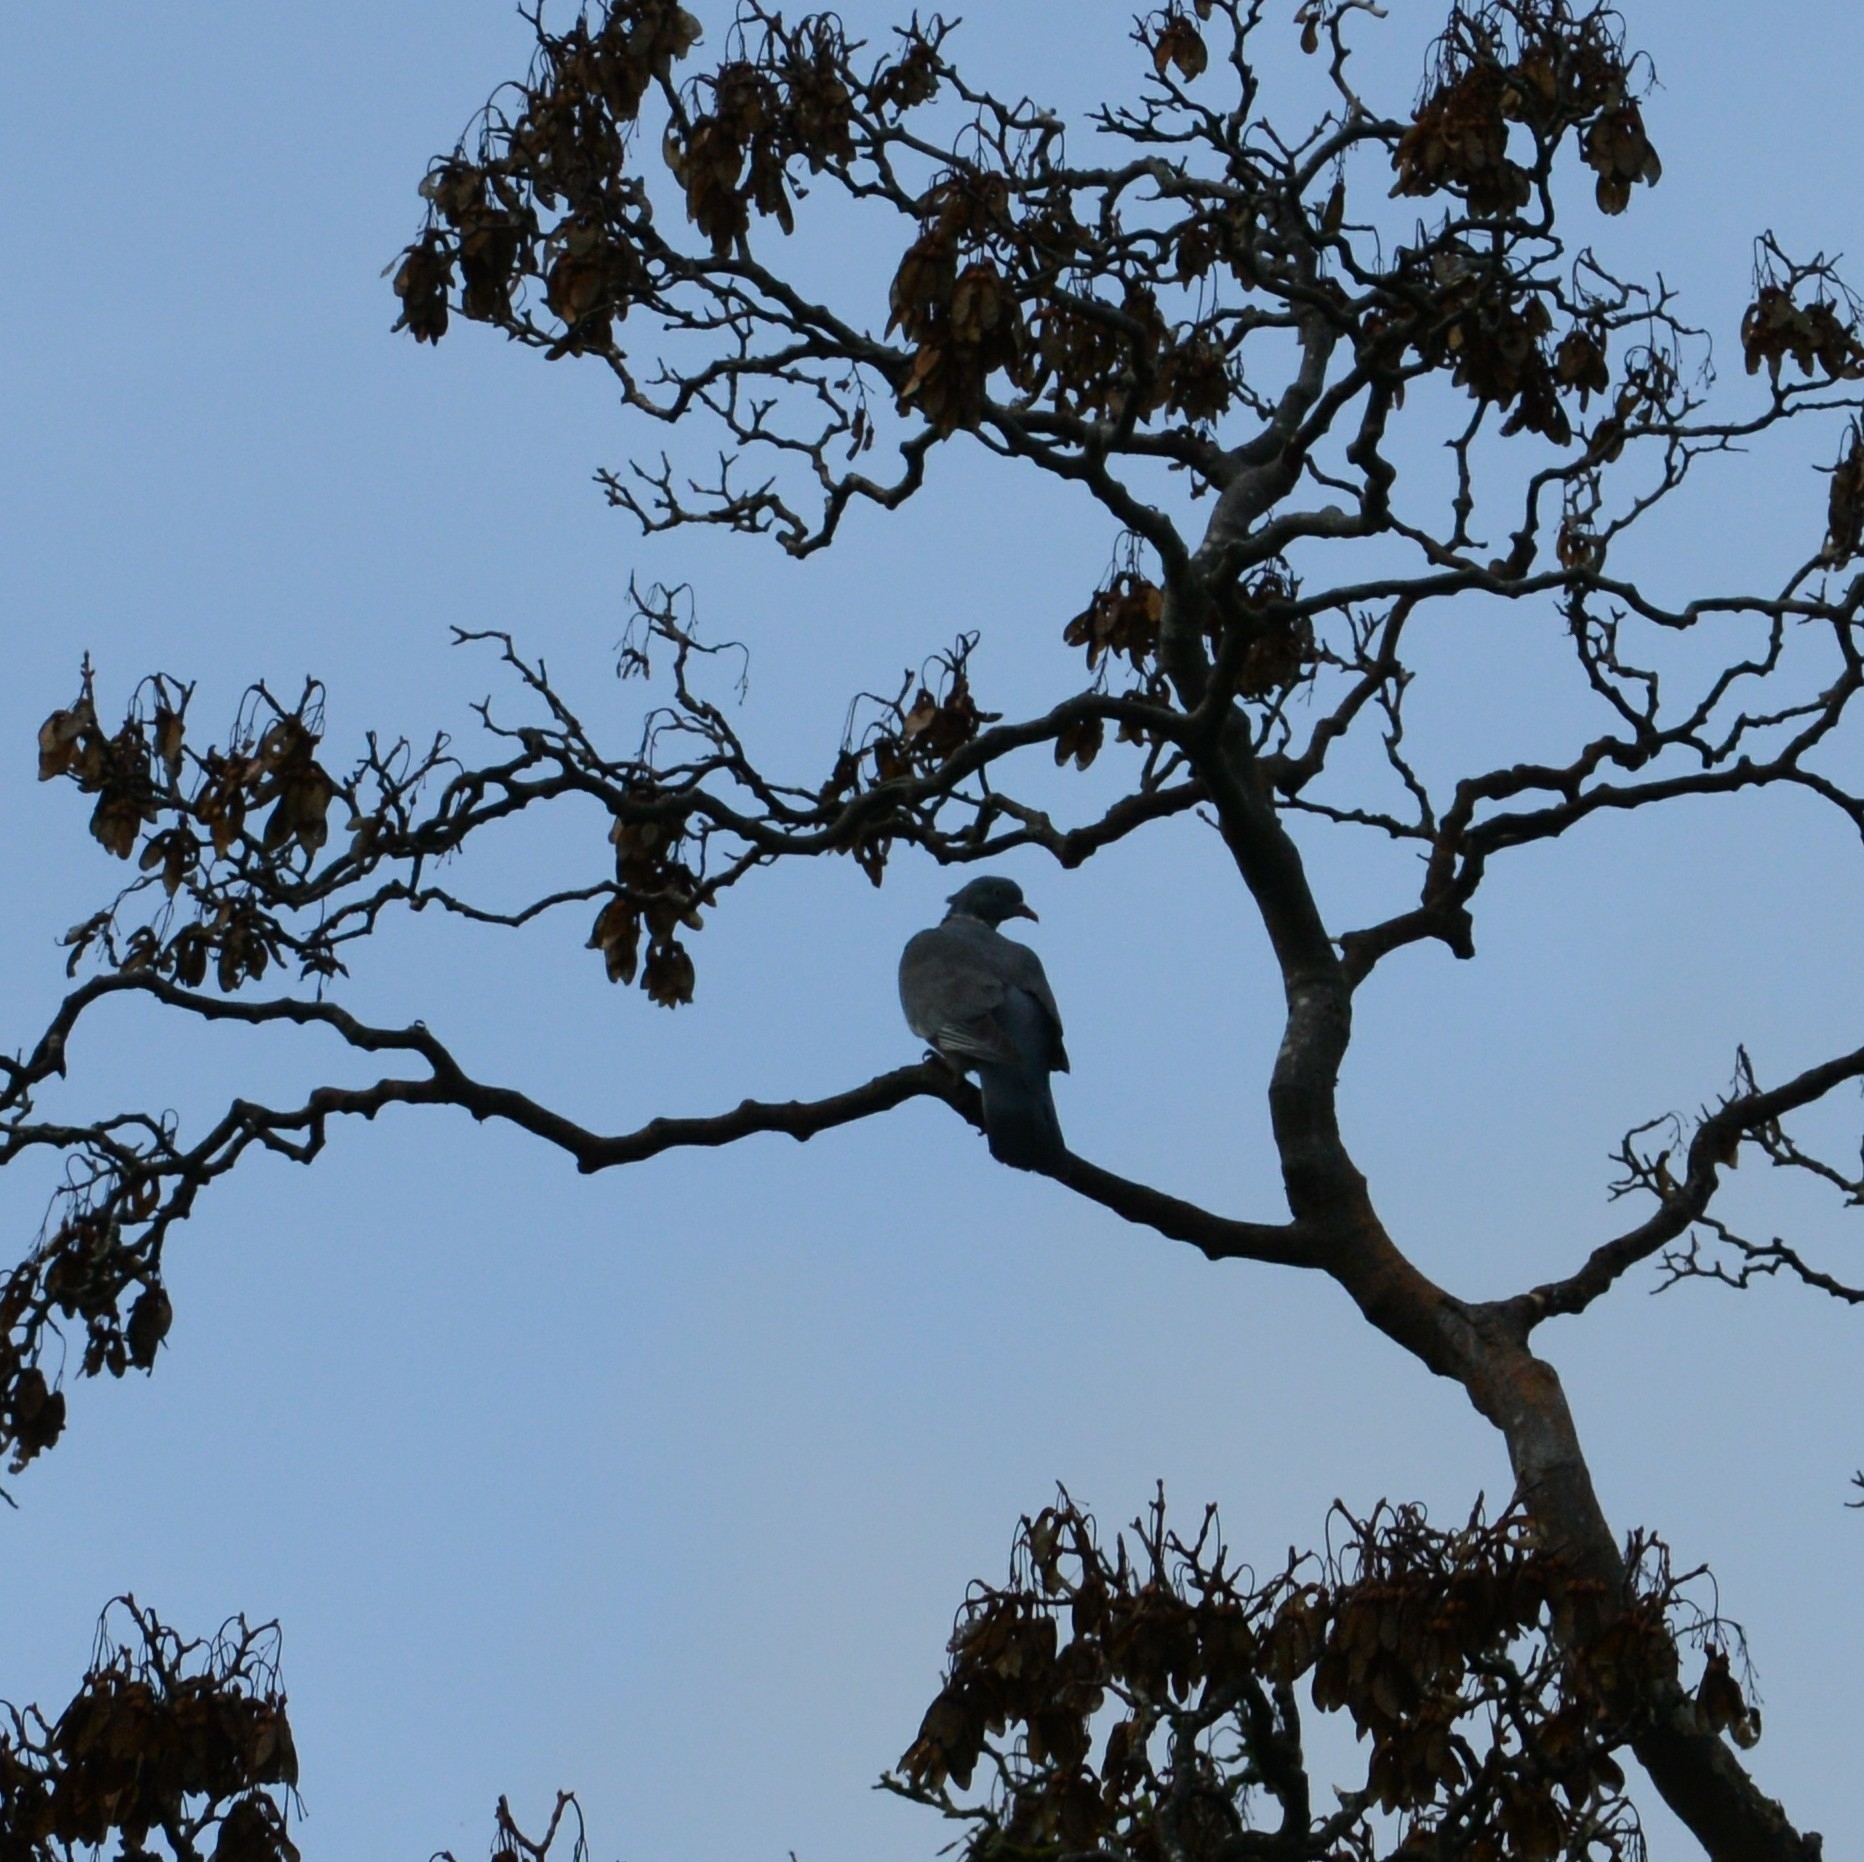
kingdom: Animalia
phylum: Chordata
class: Aves
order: Columbiformes
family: Columbidae
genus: Columba
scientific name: Columba palumbus
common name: Common wood pigeon
